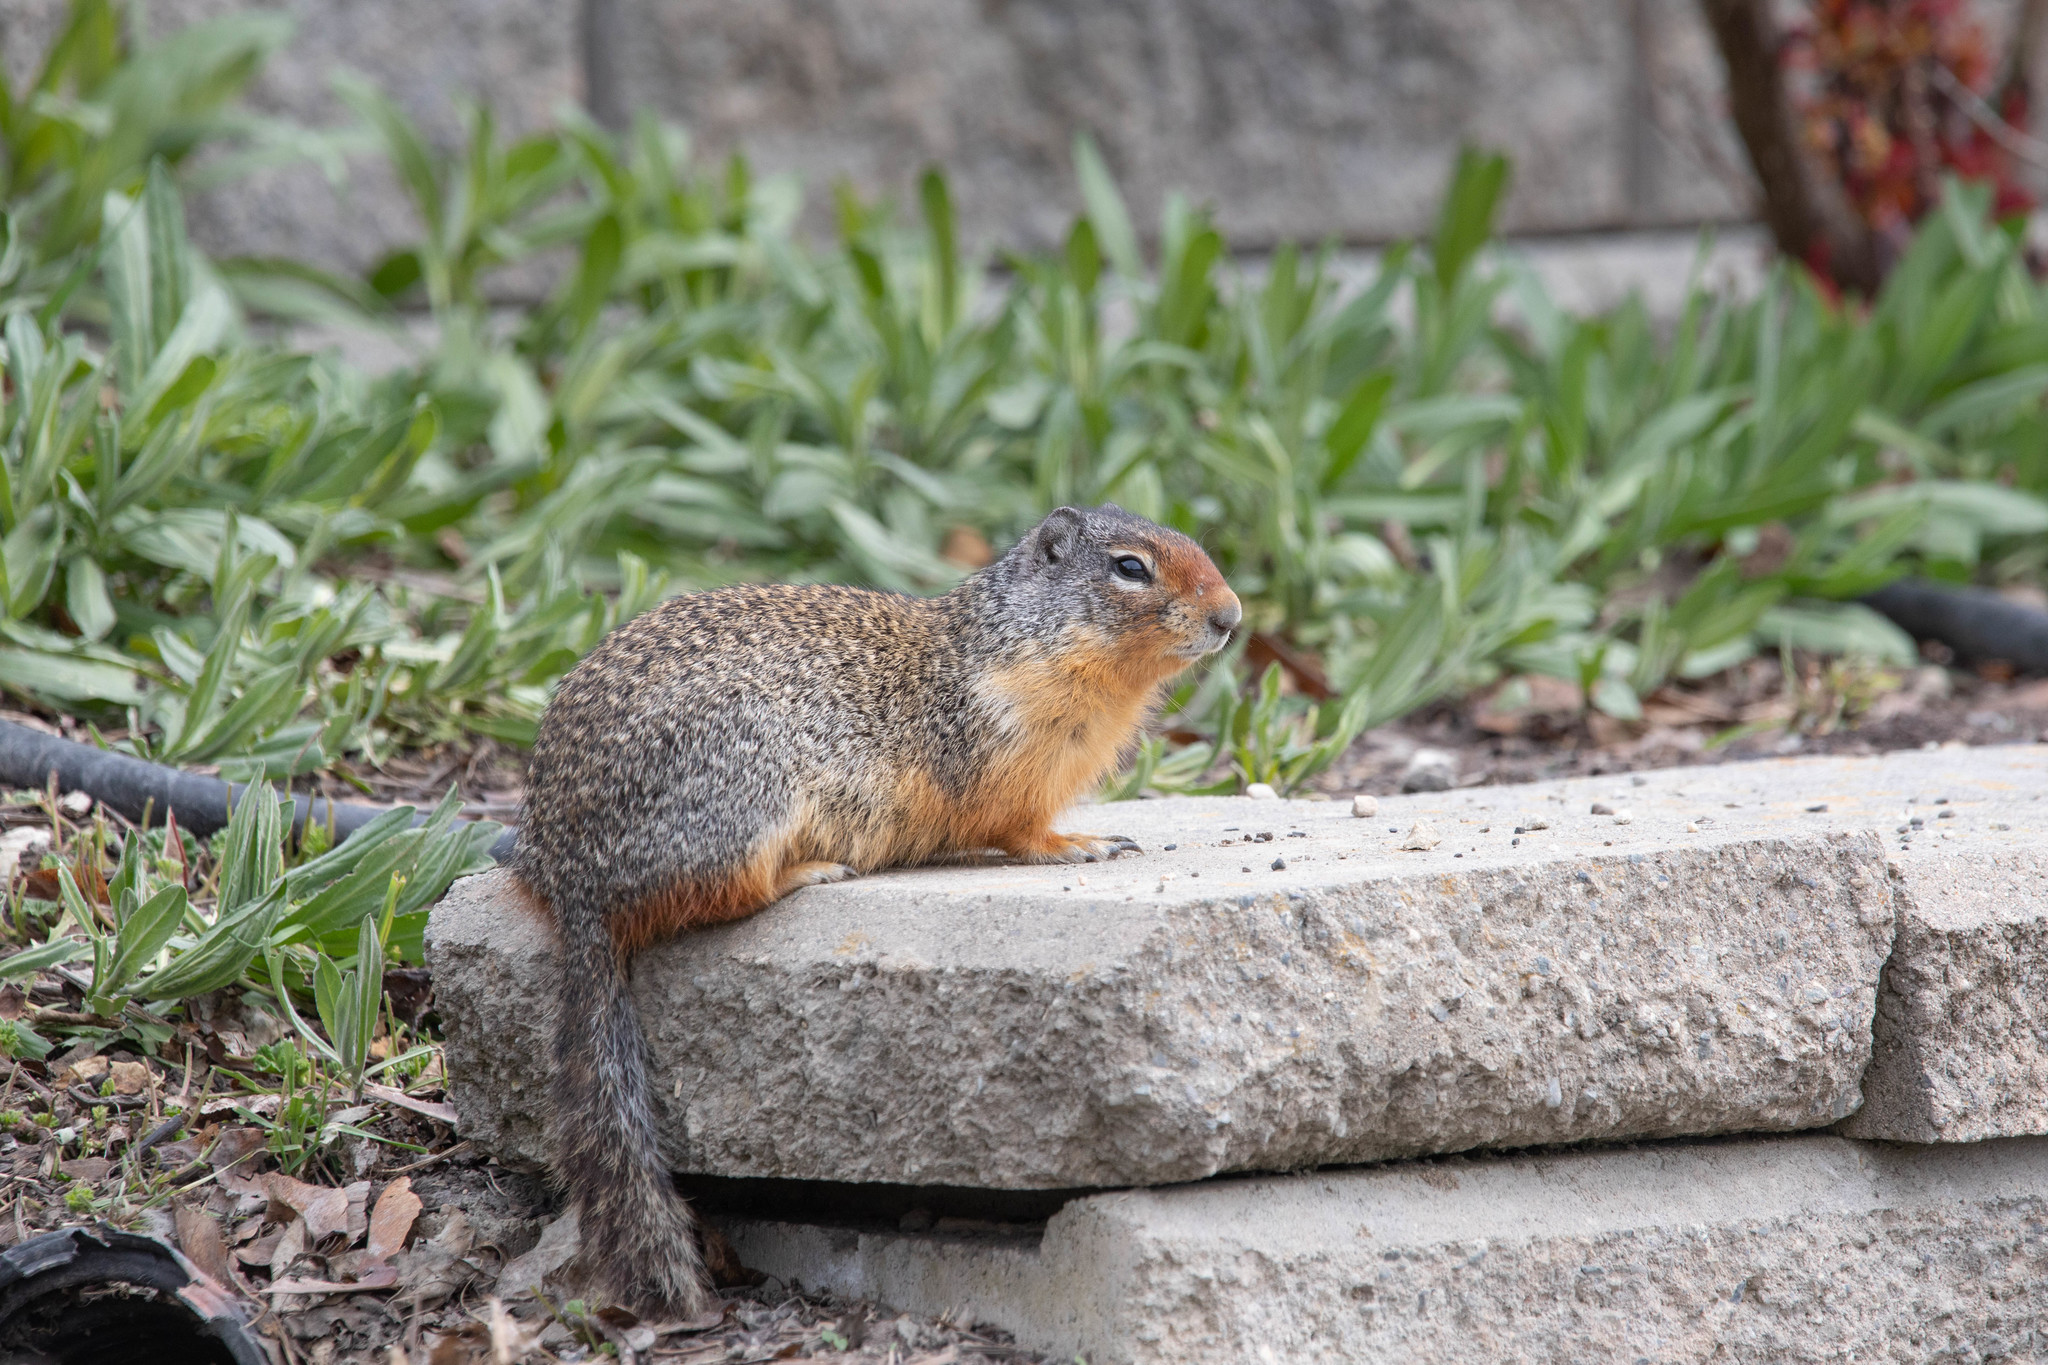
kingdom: Animalia
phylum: Chordata
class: Mammalia
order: Rodentia
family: Sciuridae
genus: Urocitellus
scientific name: Urocitellus columbianus
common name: Columbian ground squirrel
